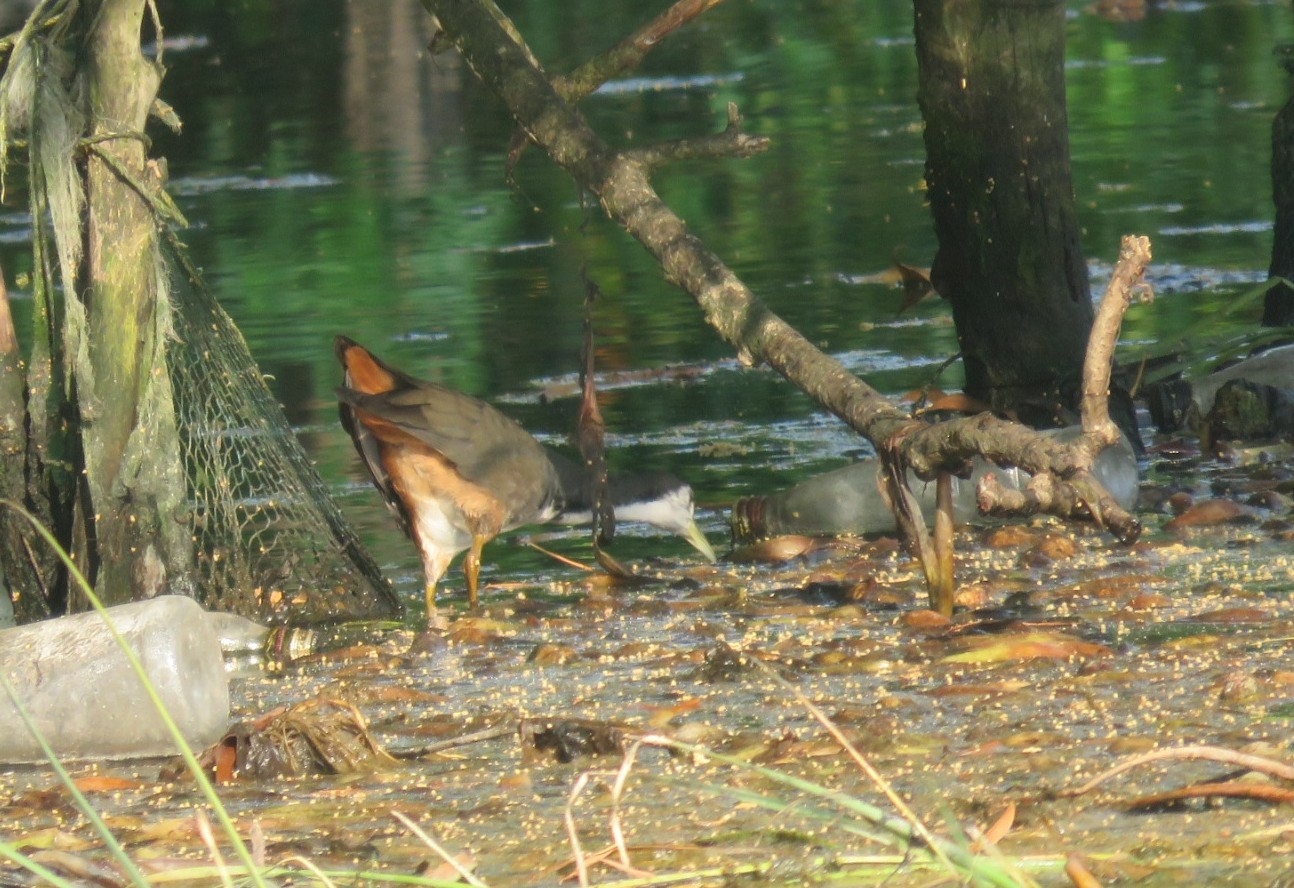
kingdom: Animalia
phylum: Chordata
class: Aves
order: Gruiformes
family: Rallidae
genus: Amaurornis
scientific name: Amaurornis phoenicurus
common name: White-breasted waterhen
